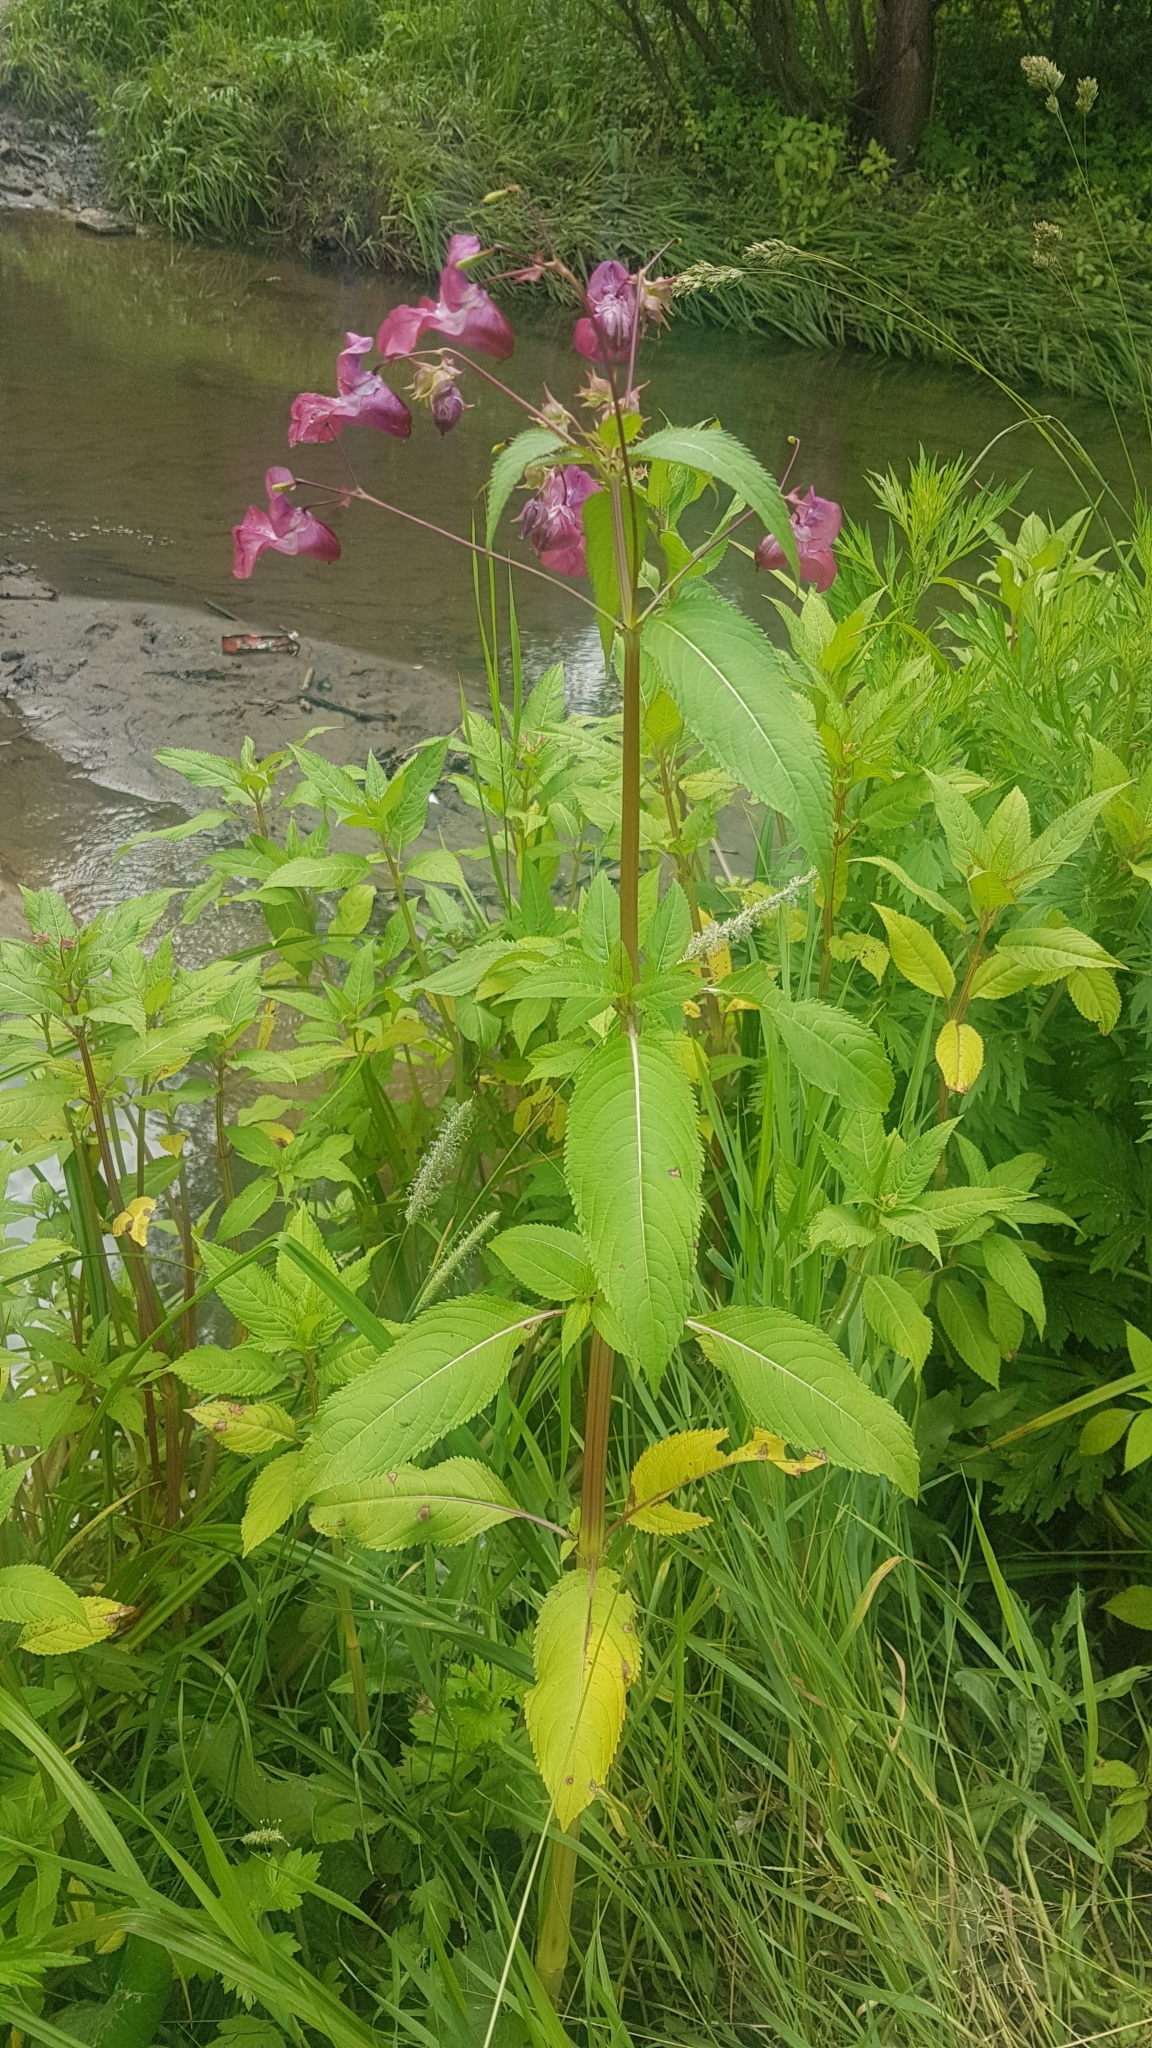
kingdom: Plantae
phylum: Tracheophyta
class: Magnoliopsida
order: Ericales
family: Balsaminaceae
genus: Impatiens
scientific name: Impatiens glandulifera
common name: Himalayan balsam
